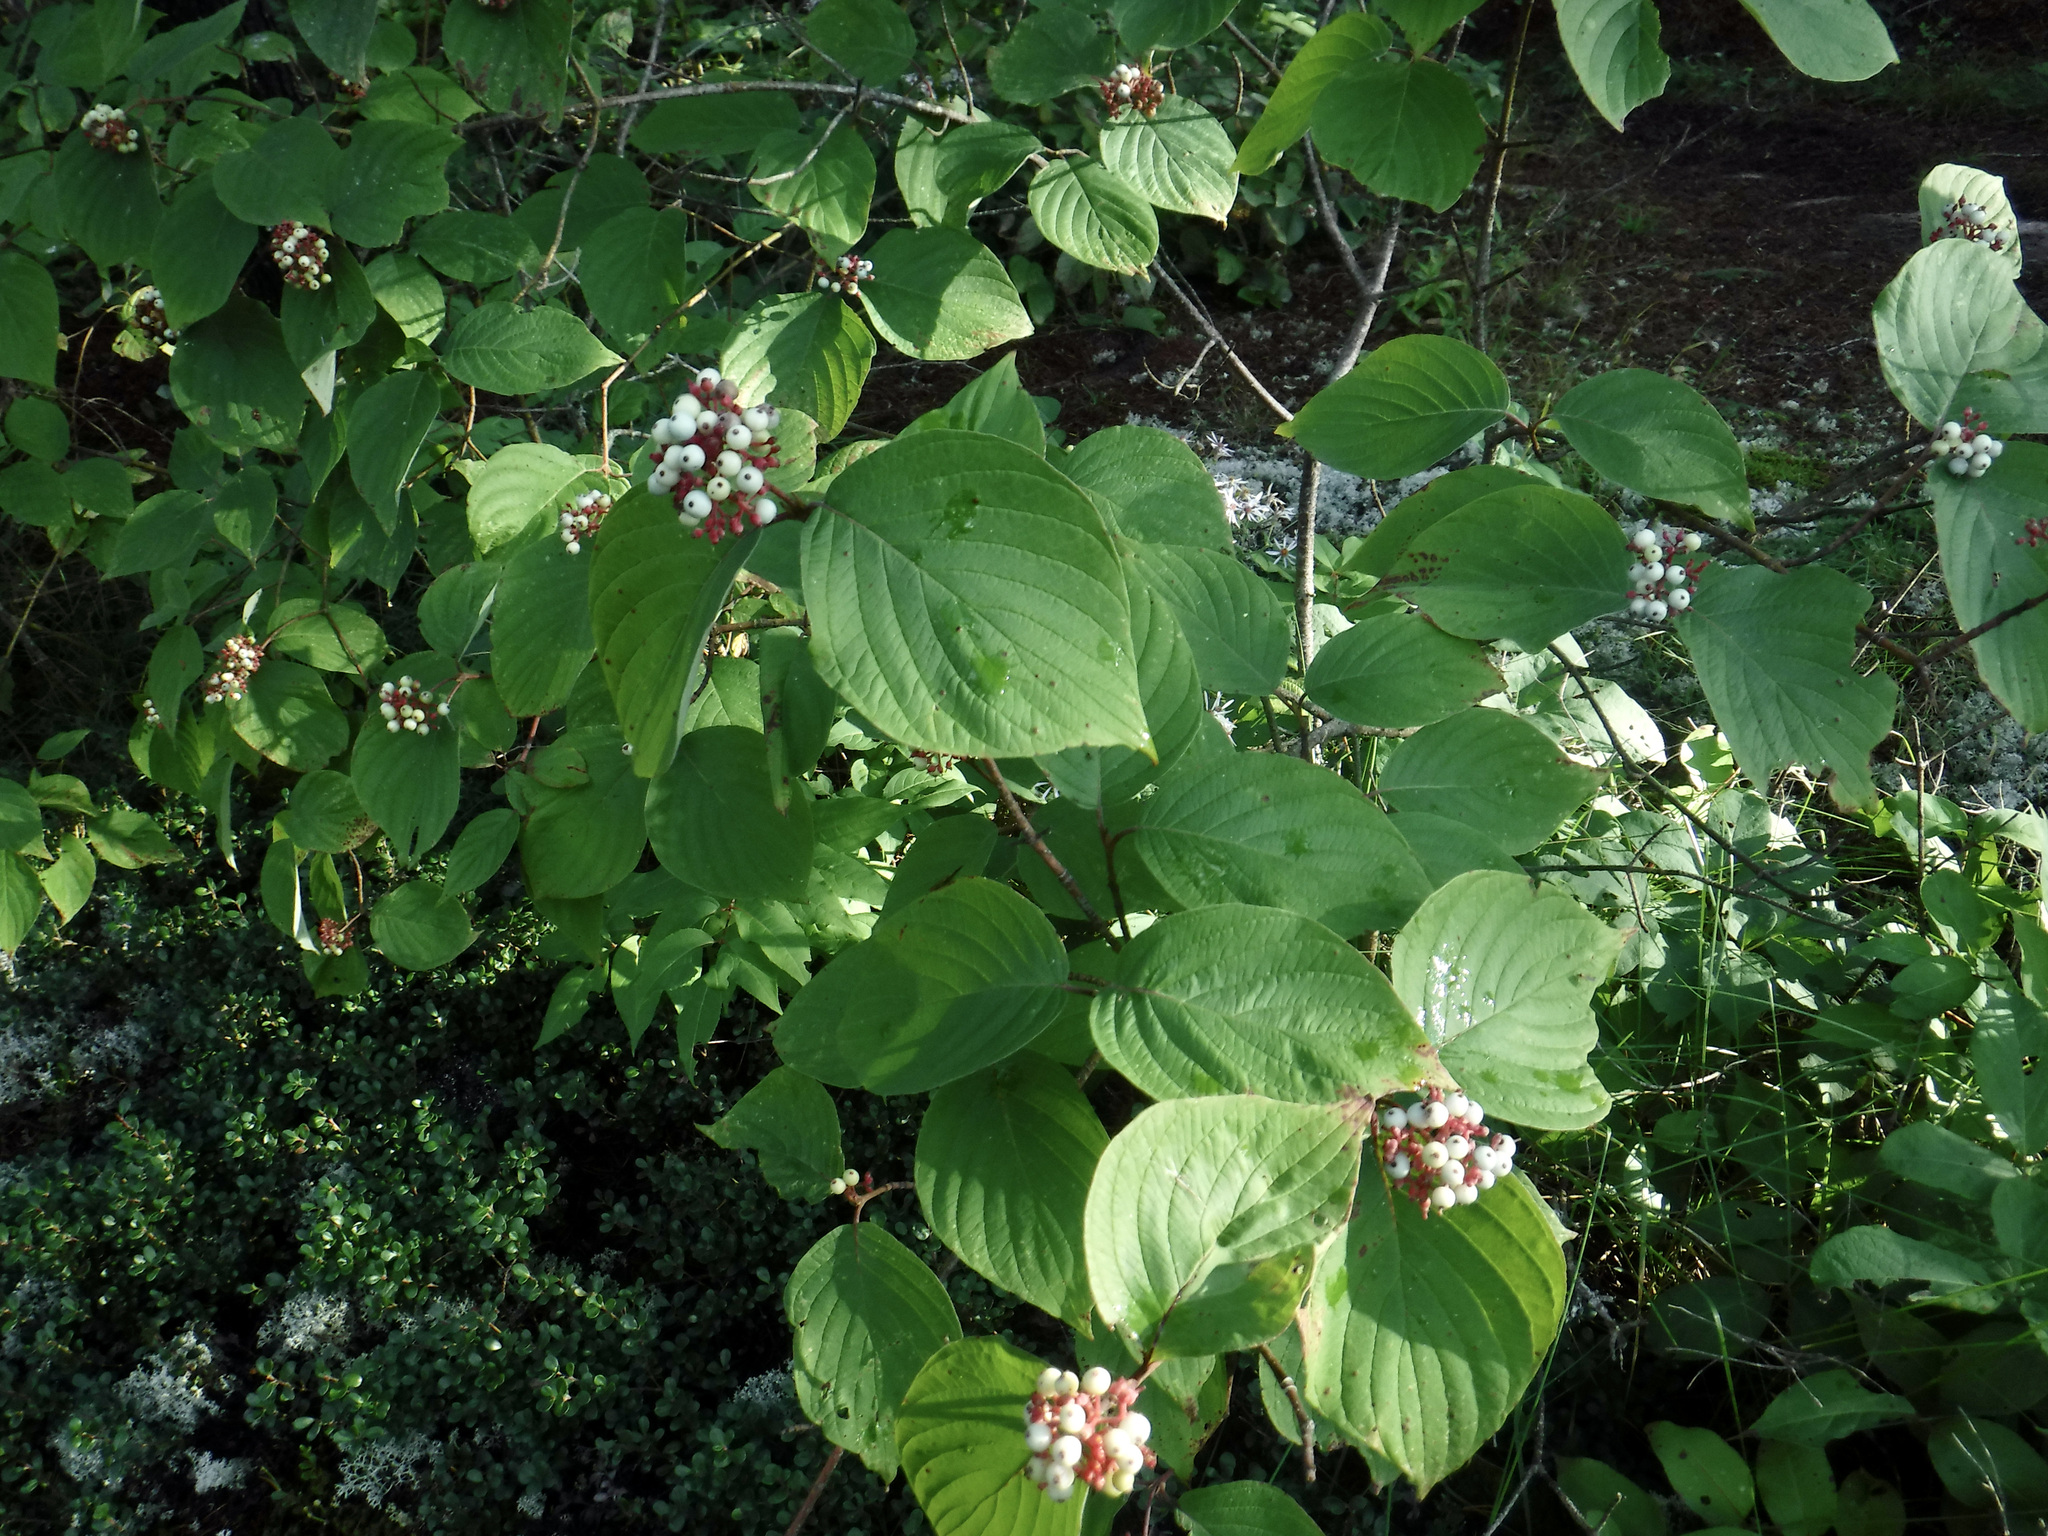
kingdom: Plantae
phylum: Tracheophyta
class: Magnoliopsida
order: Cornales
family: Cornaceae
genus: Cornus
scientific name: Cornus rugosa
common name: Round-leaf dogwood
